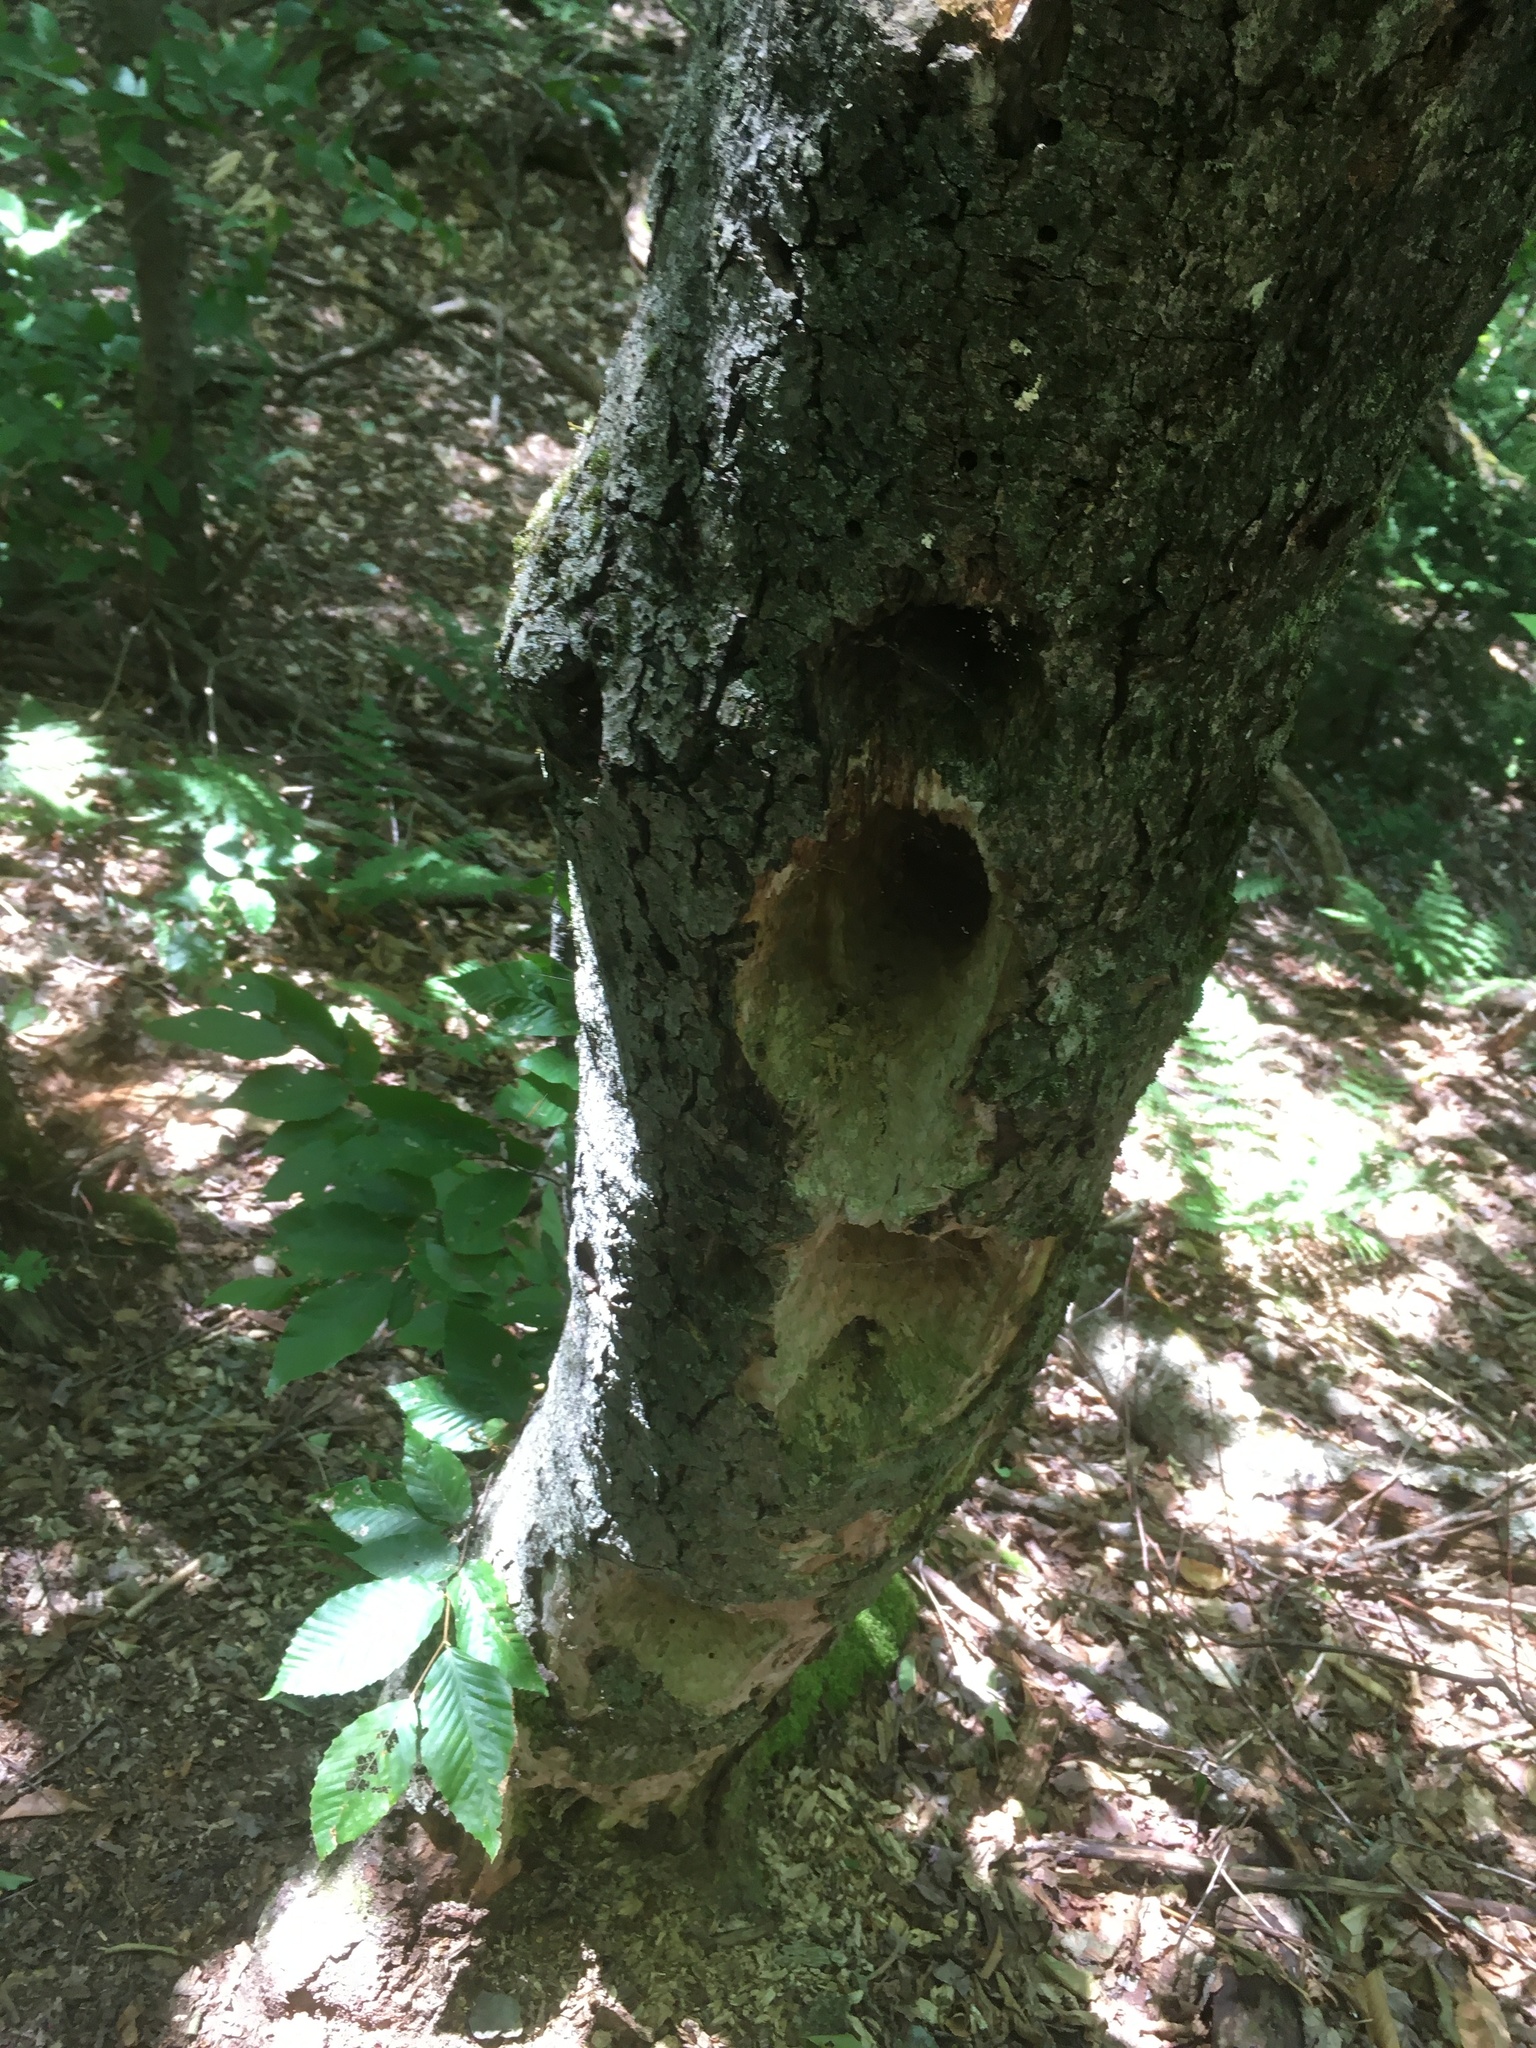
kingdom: Animalia
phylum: Chordata
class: Aves
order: Piciformes
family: Picidae
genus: Dryocopus
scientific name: Dryocopus pileatus
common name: Pileated woodpecker
